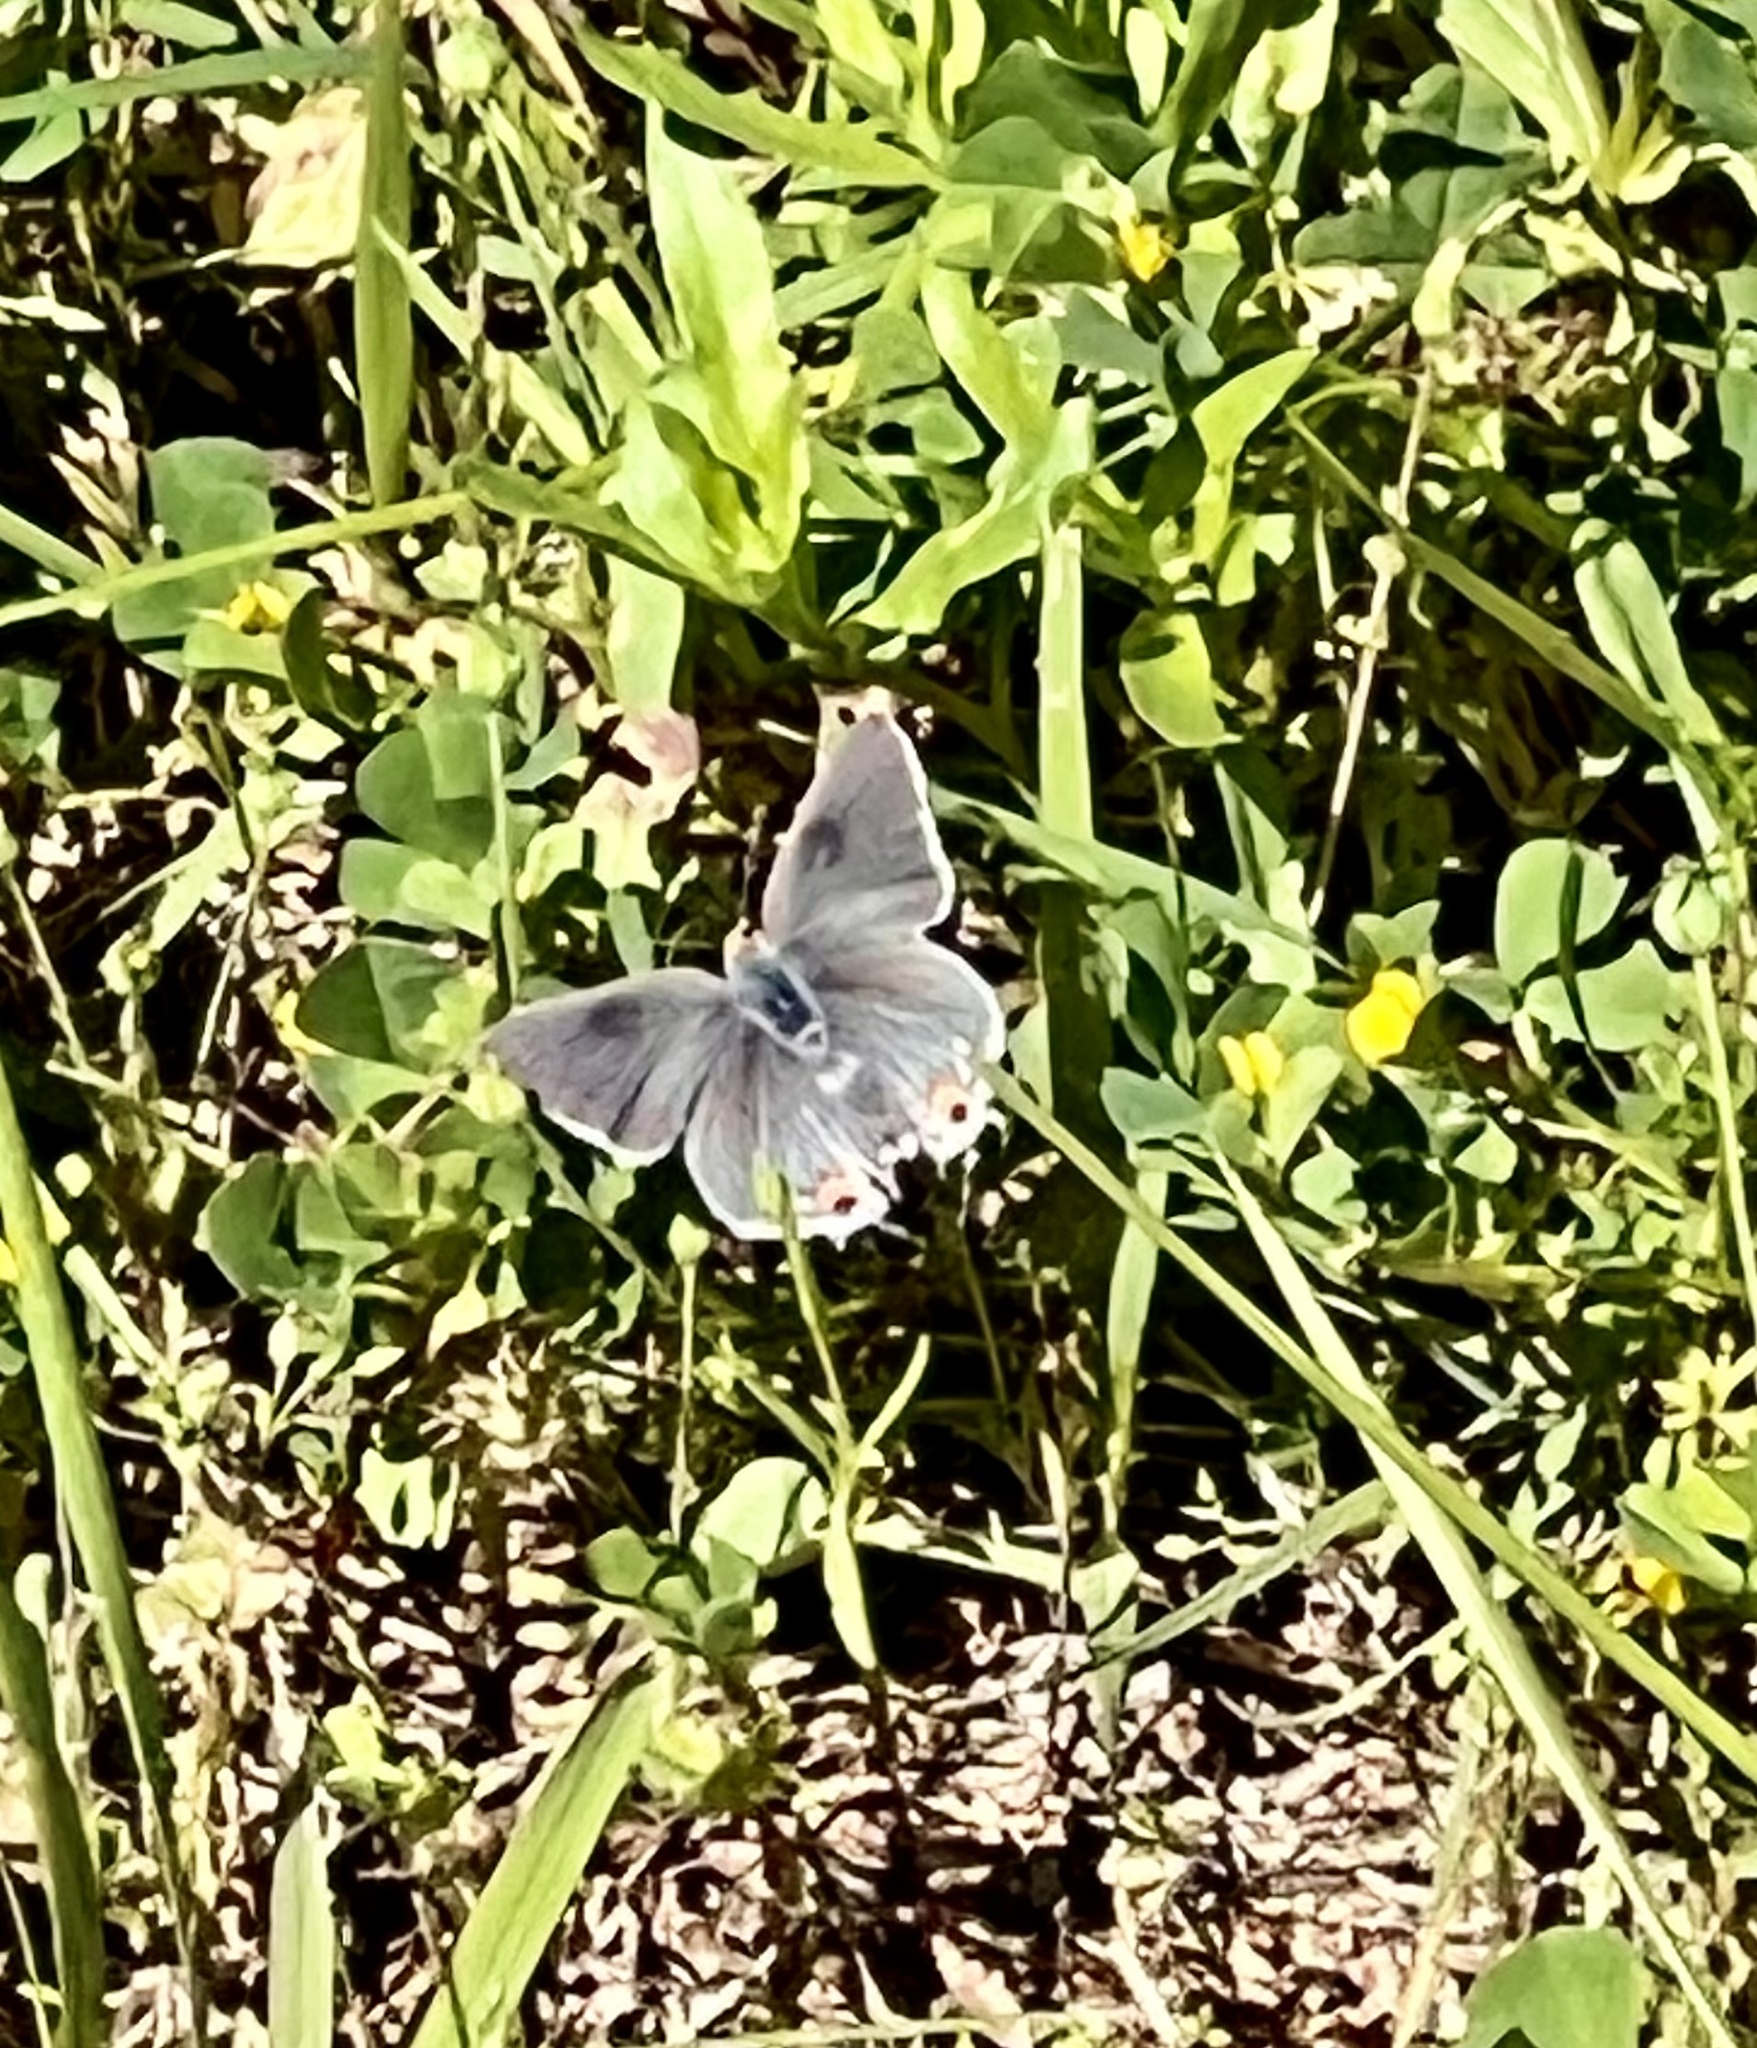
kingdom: Animalia
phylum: Arthropoda
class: Insecta
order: Lepidoptera
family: Lycaenidae
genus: Strymon
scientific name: Strymon melinus
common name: Gray hairstreak
